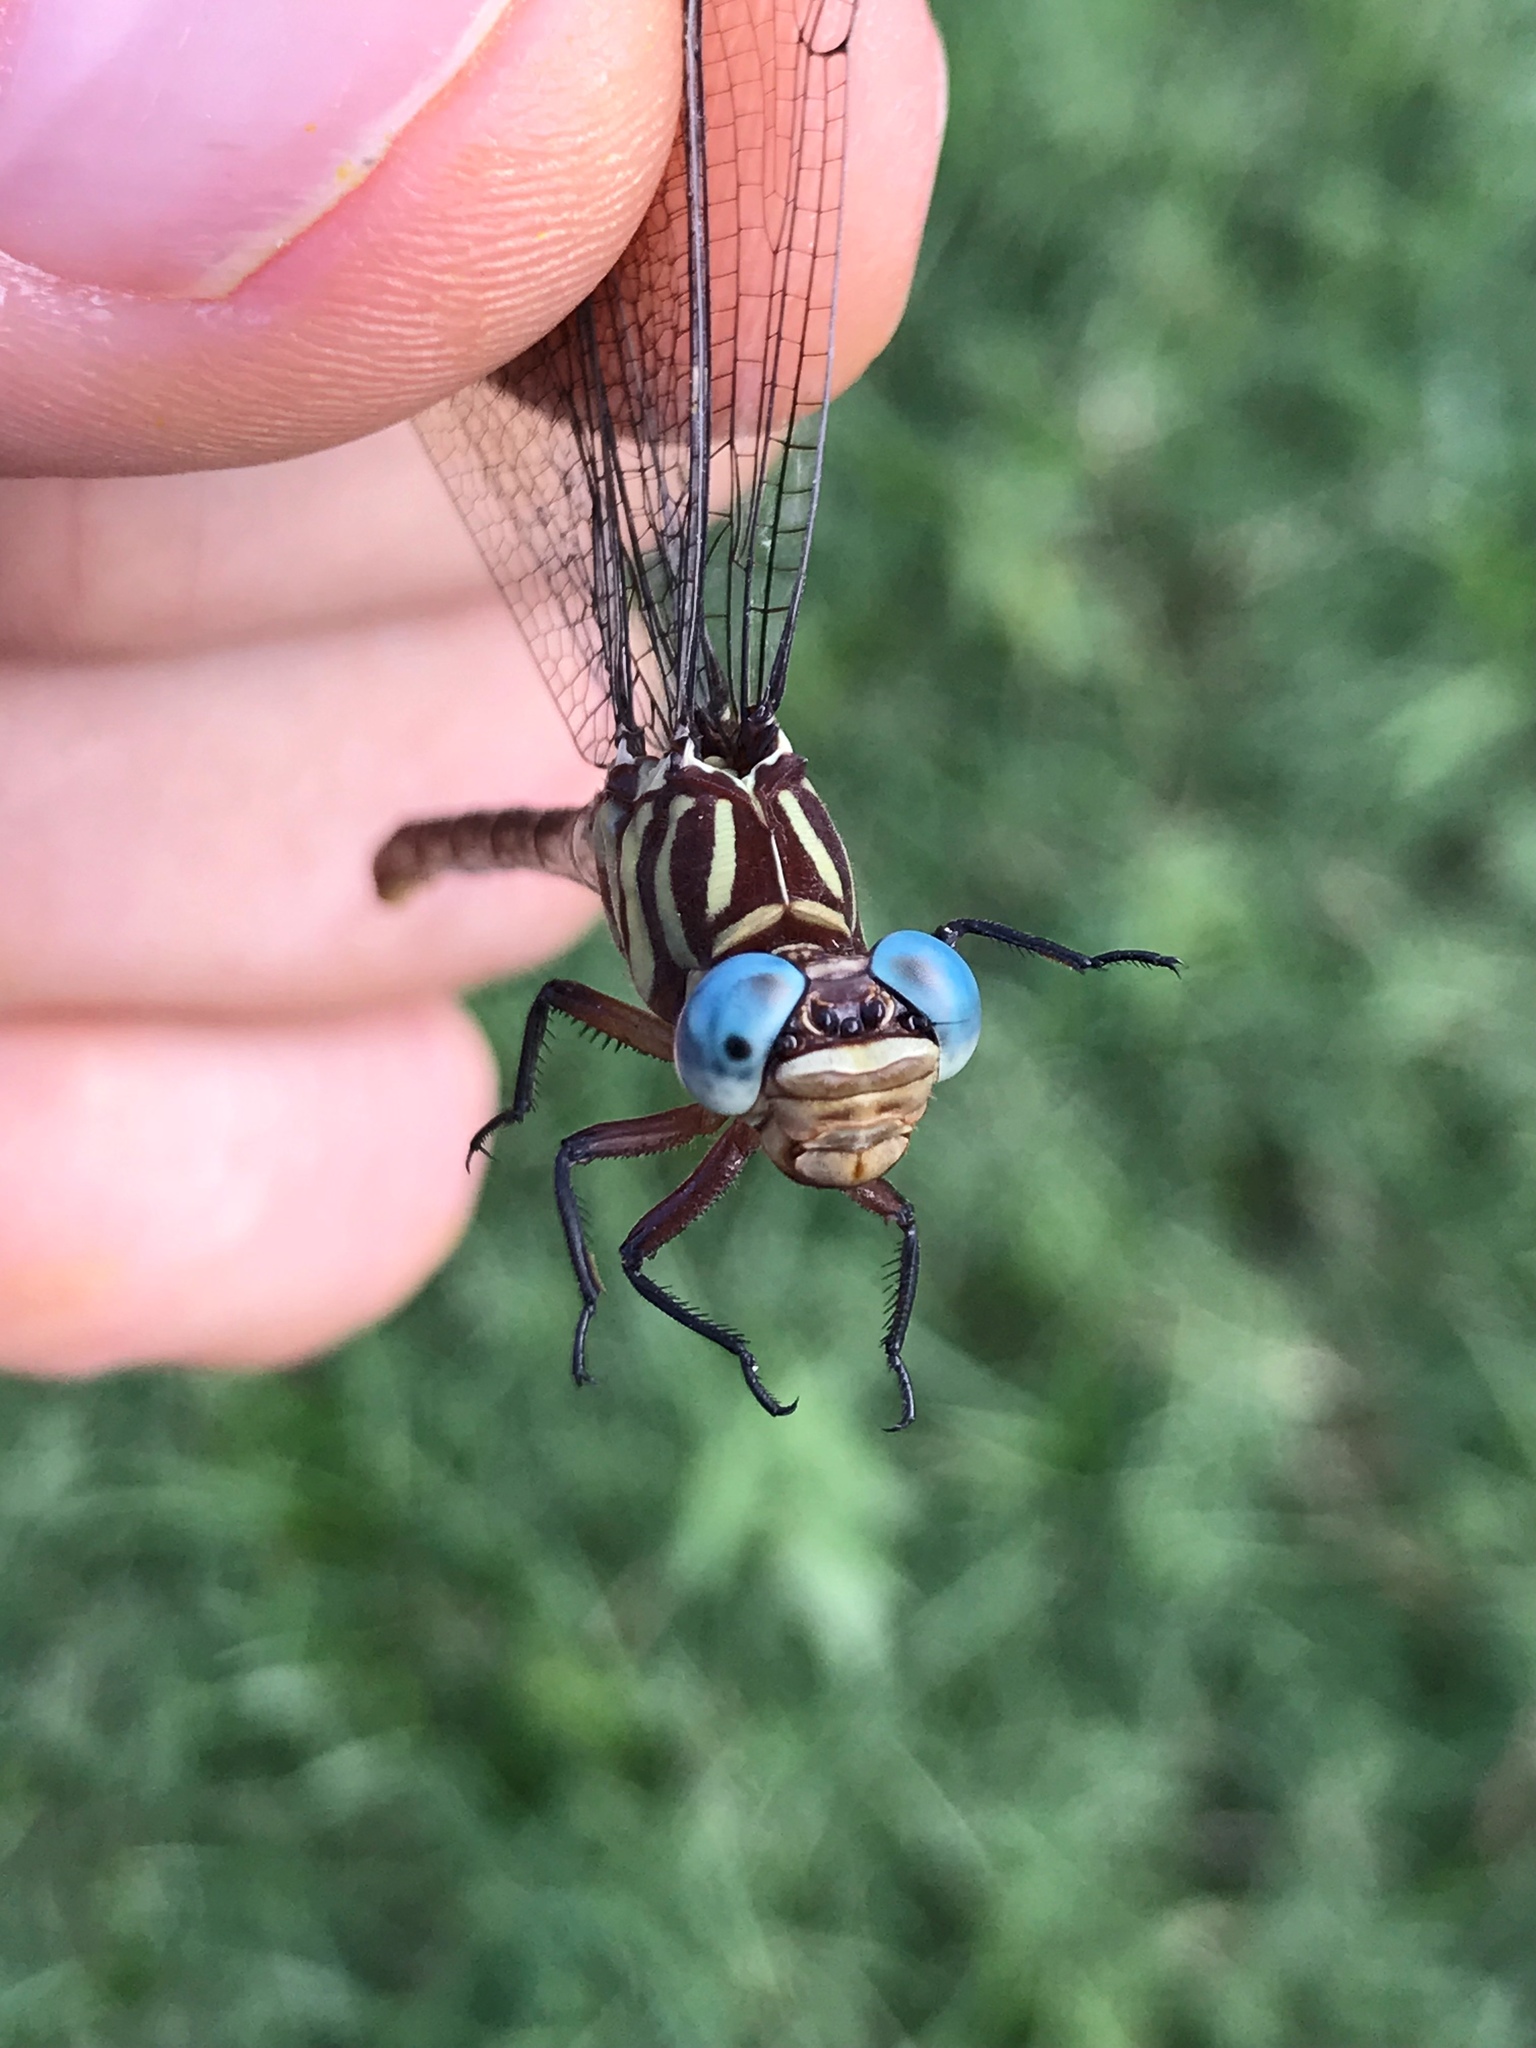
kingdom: Animalia
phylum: Arthropoda
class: Insecta
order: Odonata
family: Gomphidae
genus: Stylurus
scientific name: Stylurus plagiatus
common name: Russet-tipped clubtail
